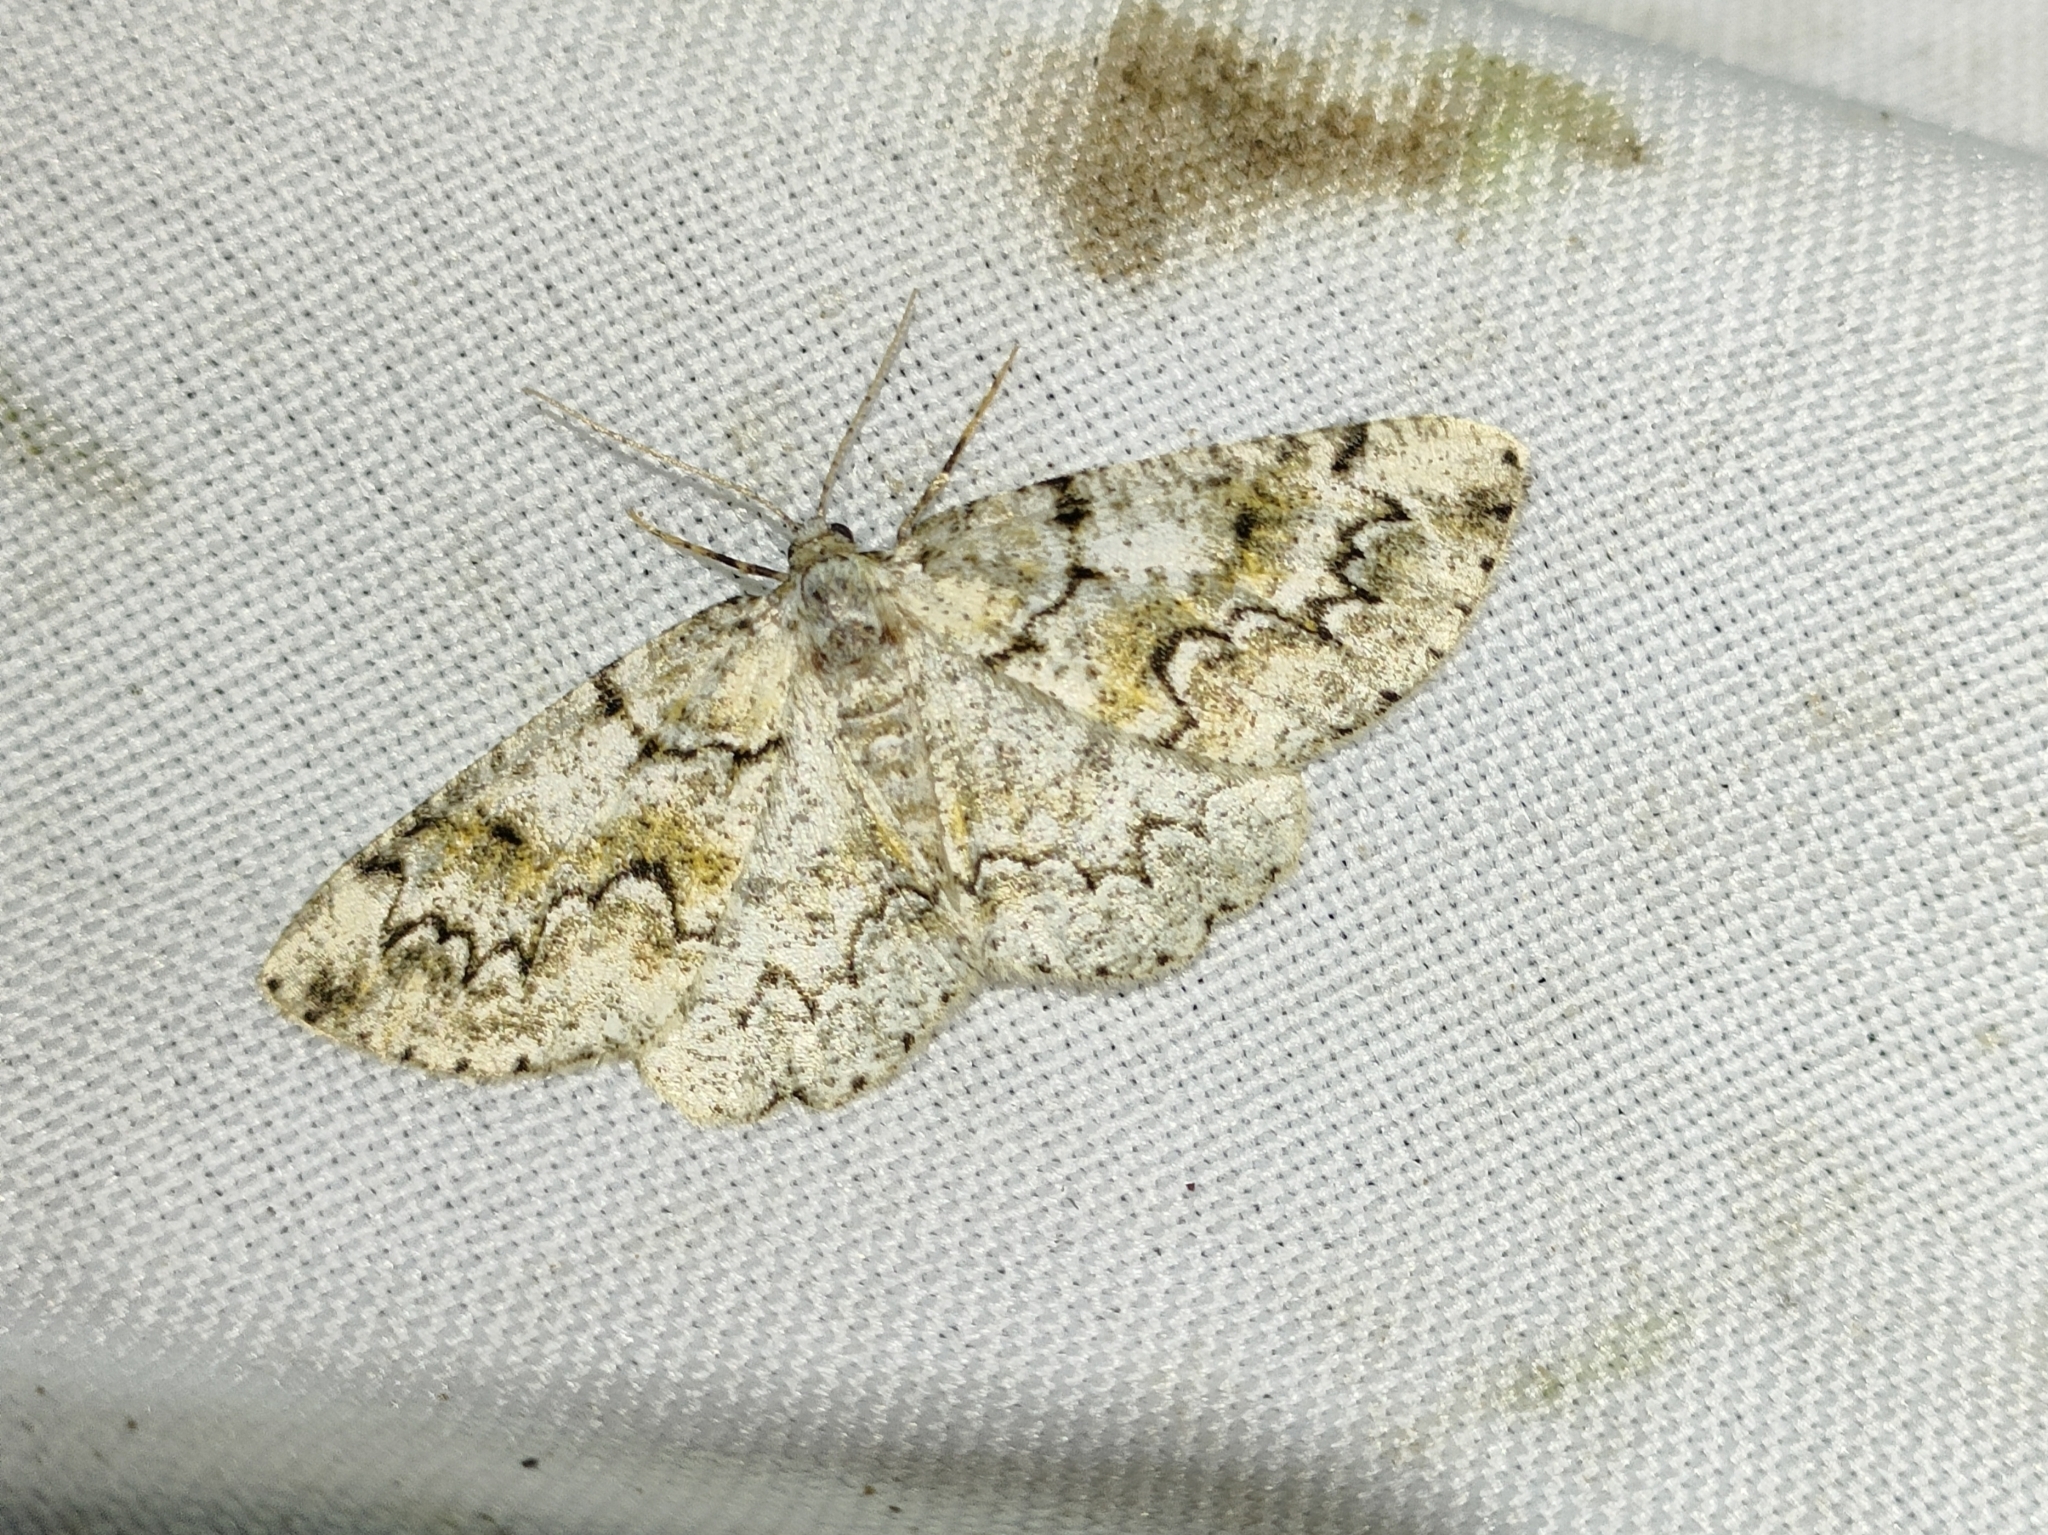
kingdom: Animalia
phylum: Arthropoda
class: Insecta
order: Lepidoptera
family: Geometridae
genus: Cleorodes
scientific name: Cleorodes lichenaria
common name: Brussels lace
